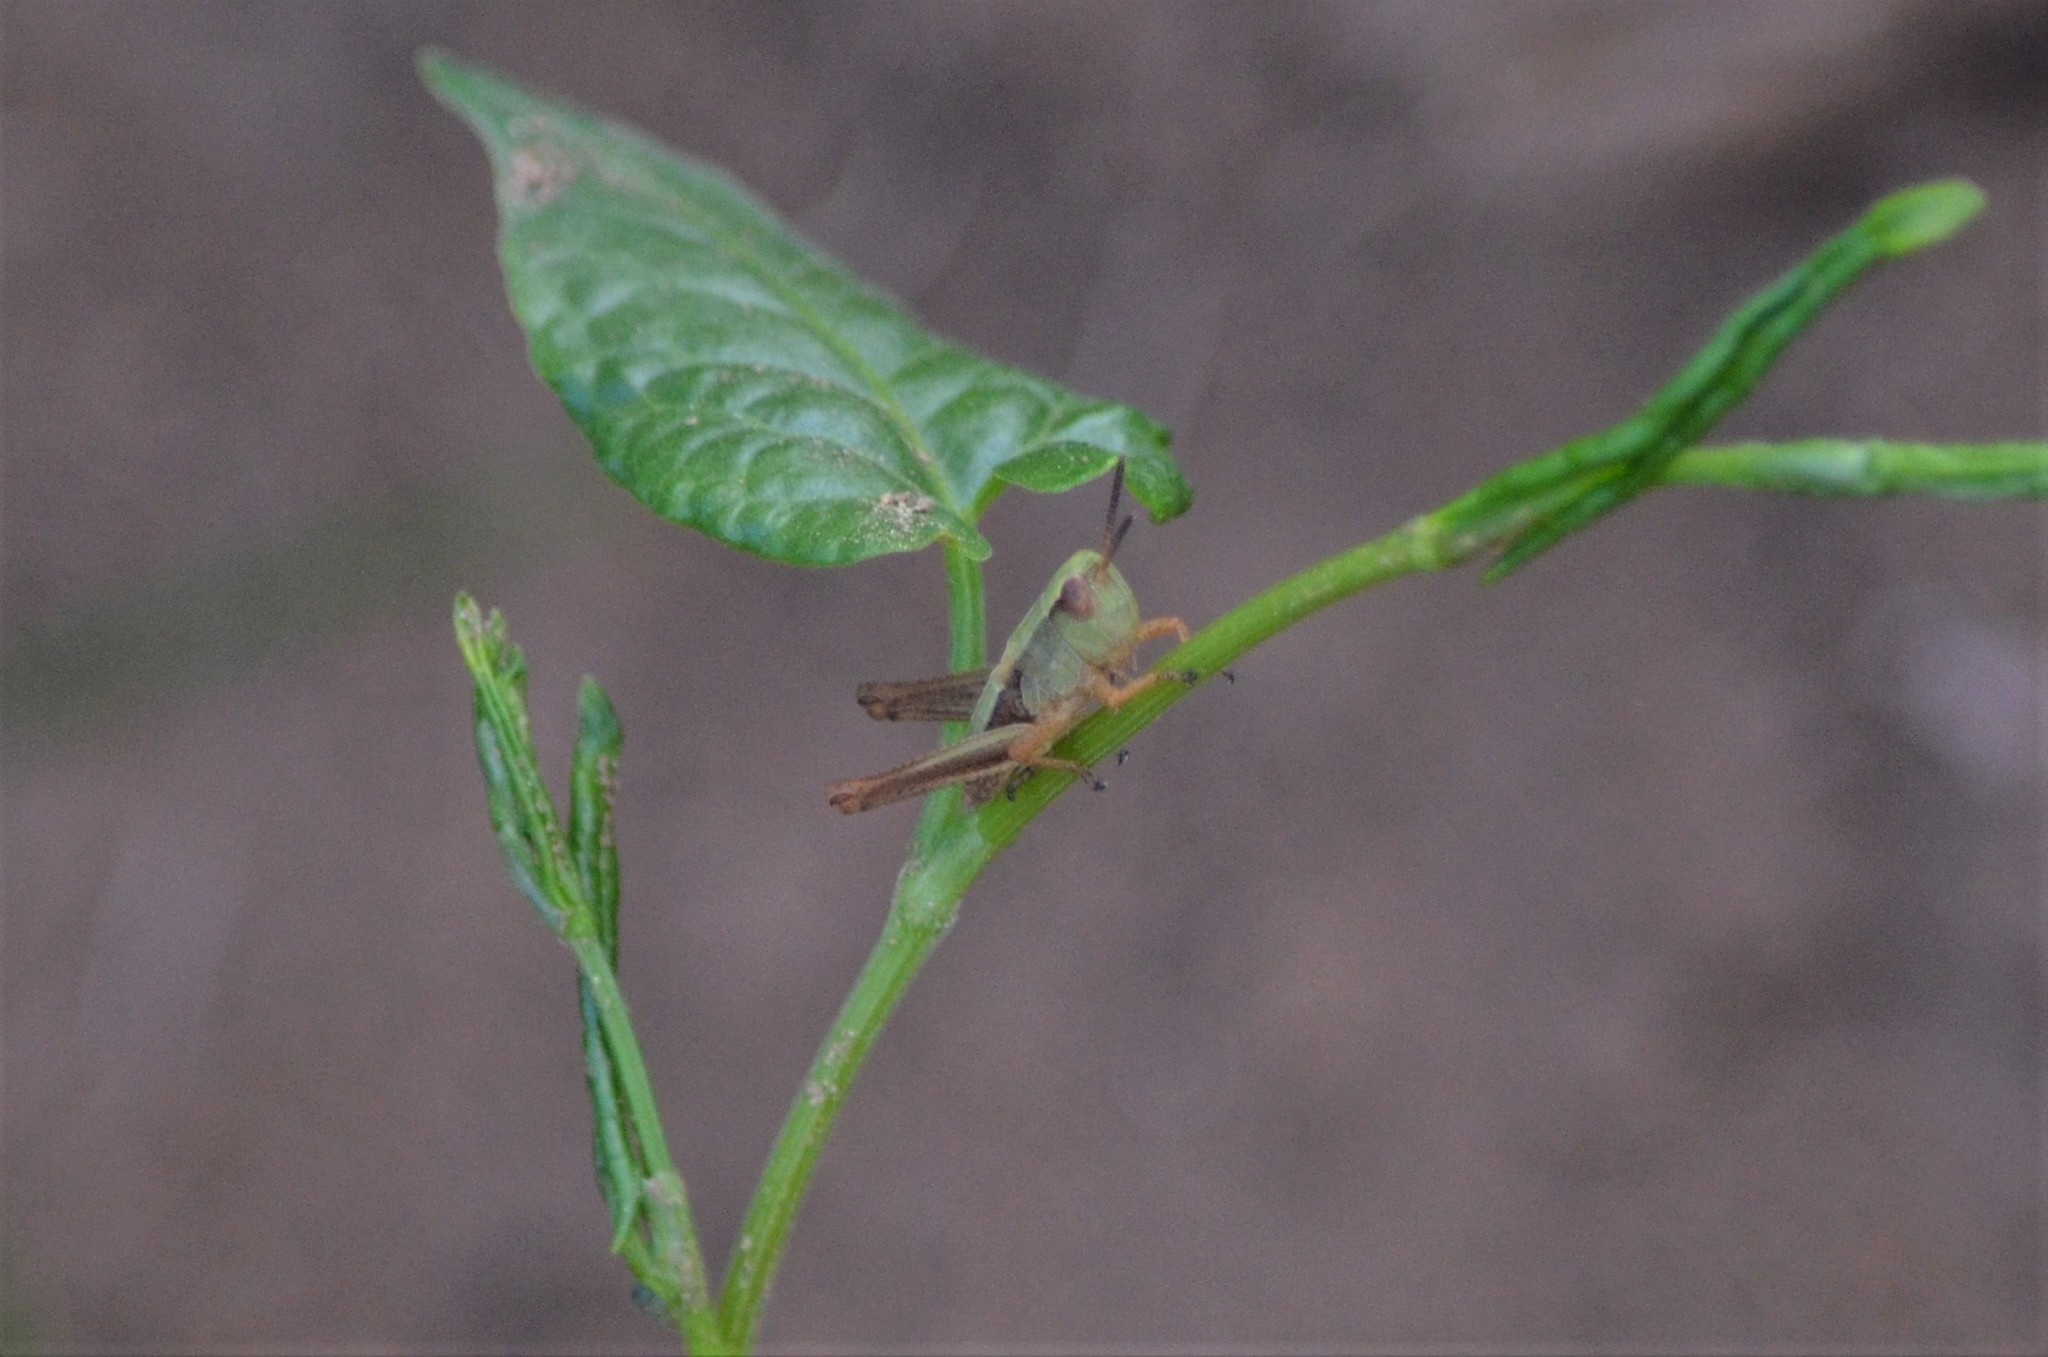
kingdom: Animalia
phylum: Arthropoda
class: Insecta
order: Orthoptera
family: Acrididae
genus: Pseudochorthippus
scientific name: Pseudochorthippus parallelus
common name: Meadow grasshopper
